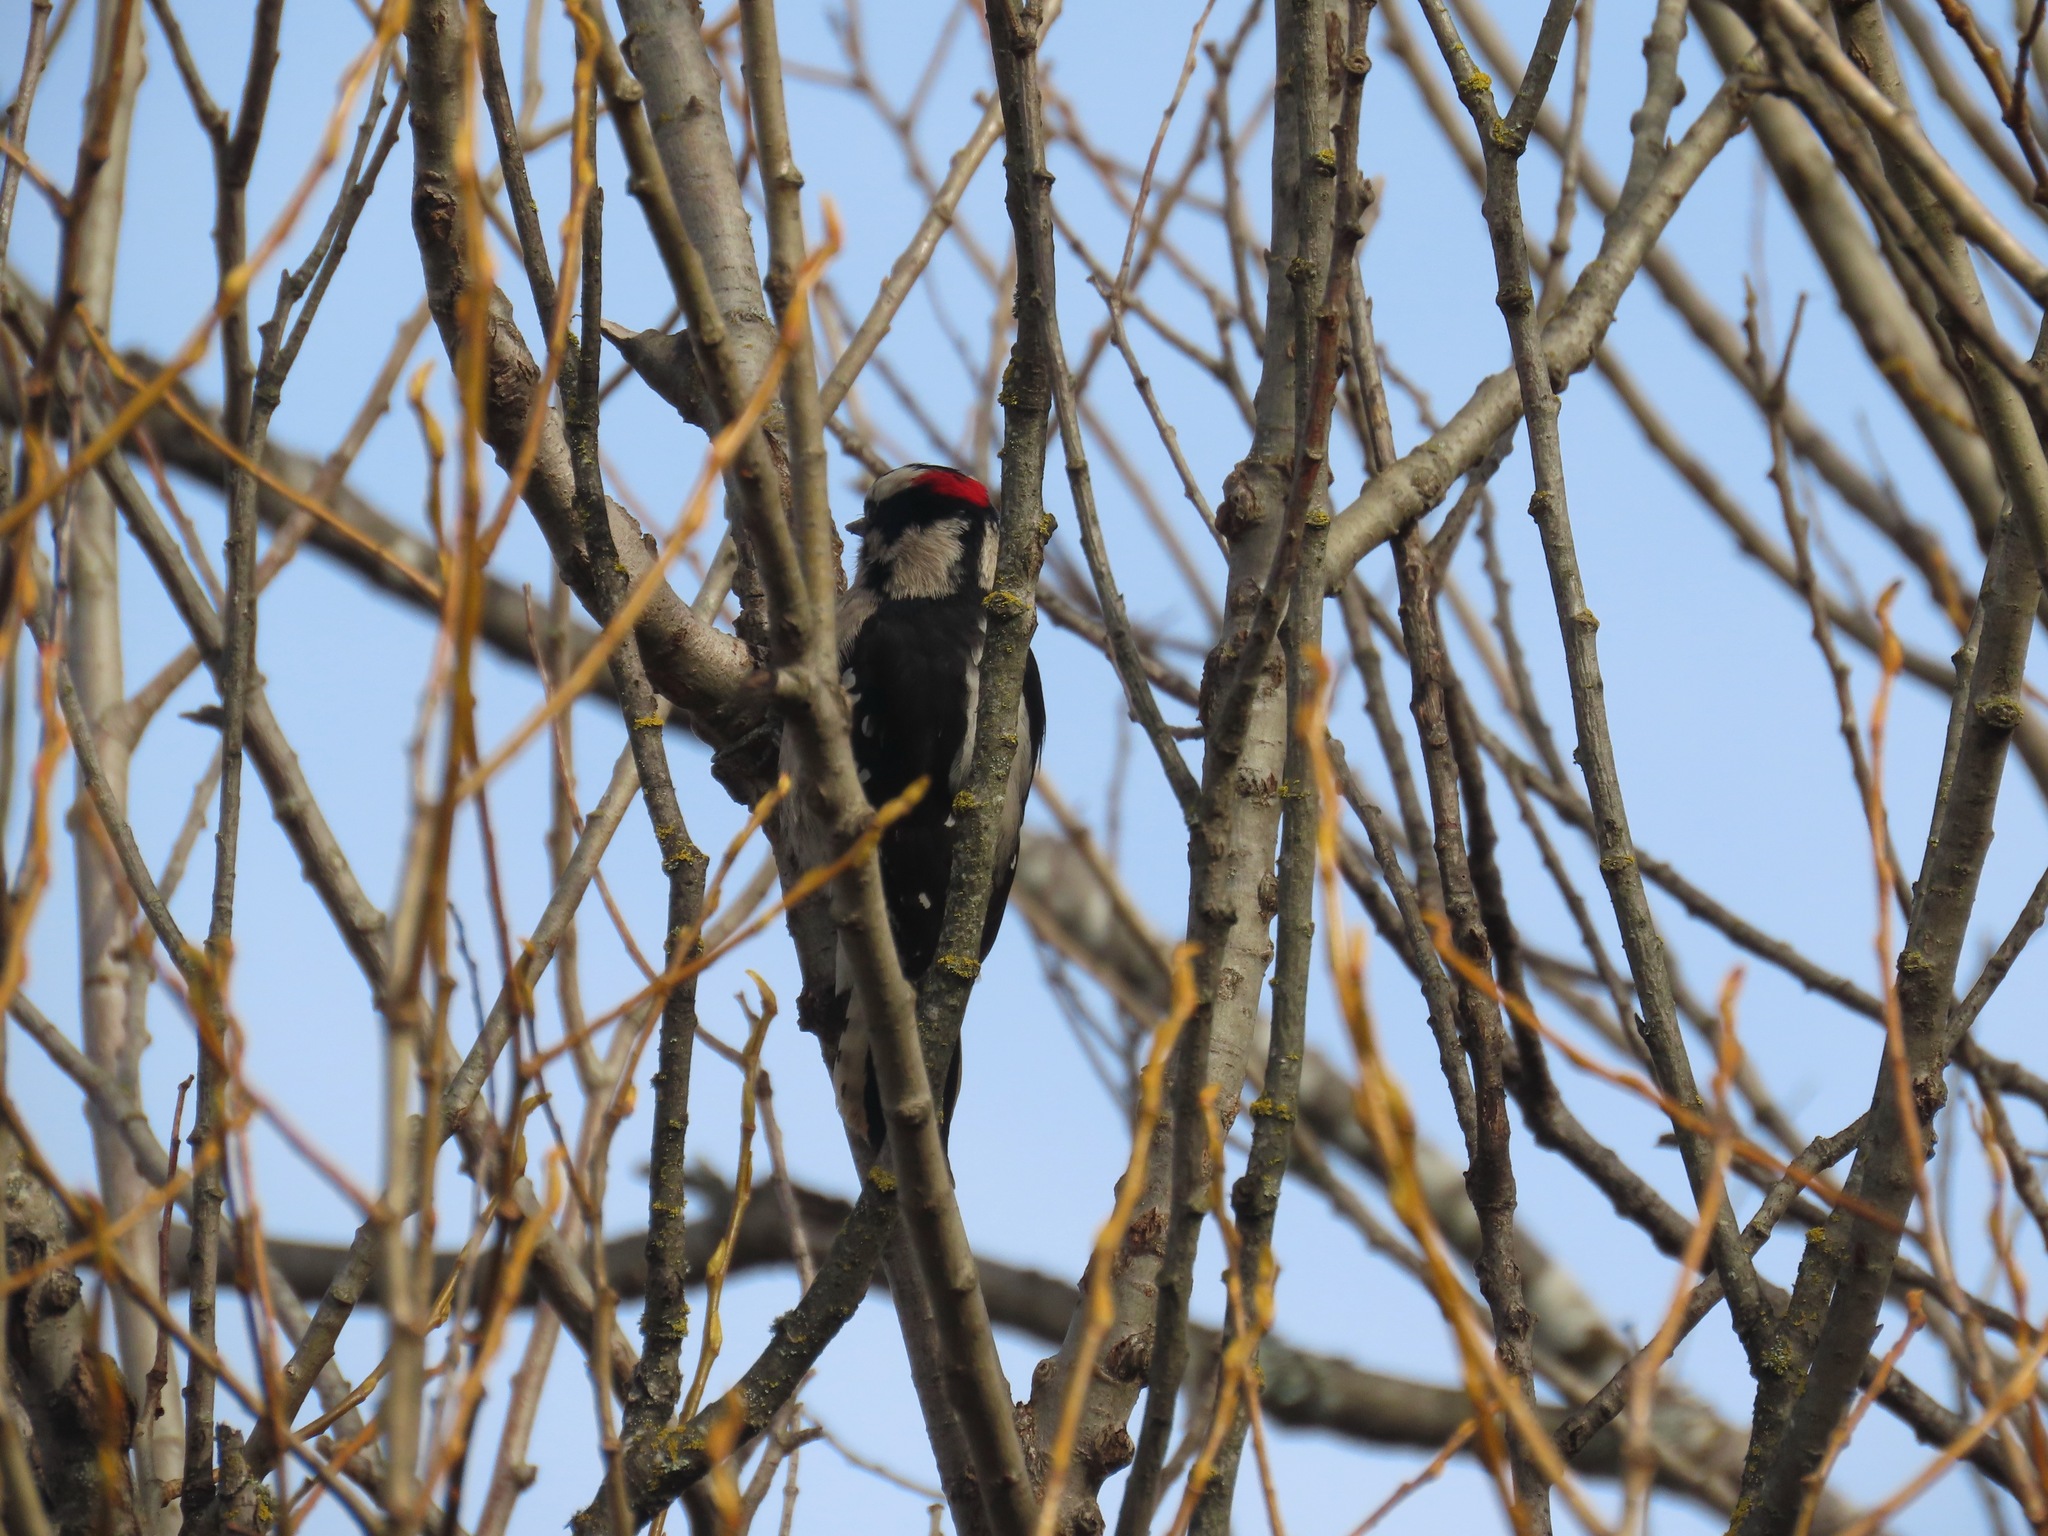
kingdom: Animalia
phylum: Chordata
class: Aves
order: Piciformes
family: Picidae
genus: Dryobates
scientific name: Dryobates pubescens
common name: Downy woodpecker
